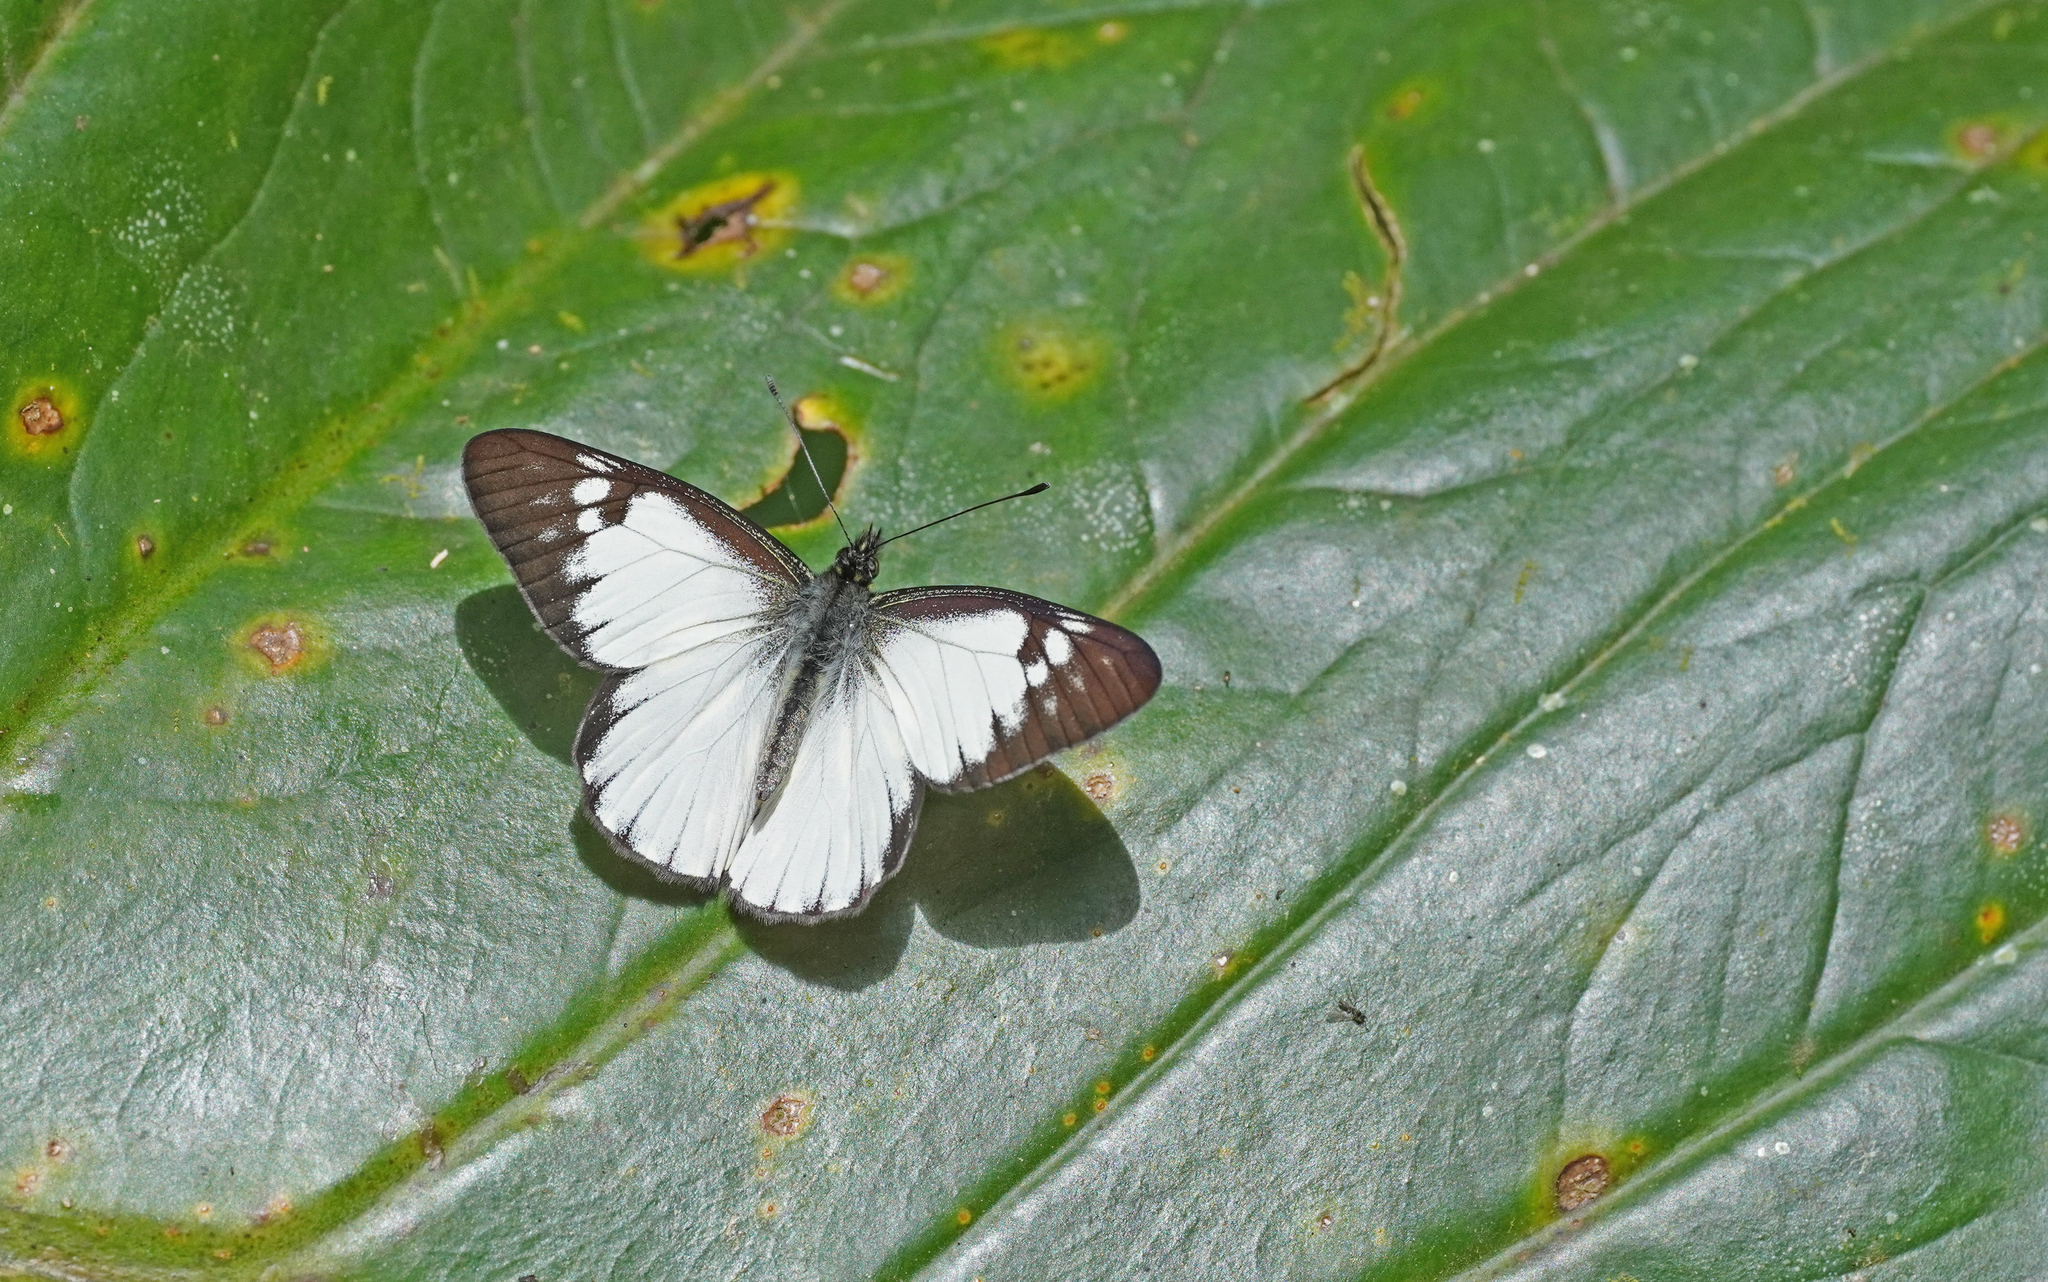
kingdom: Animalia
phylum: Arthropoda
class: Insecta
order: Lepidoptera
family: Pieridae
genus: Catasticta
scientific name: Catasticta notha
